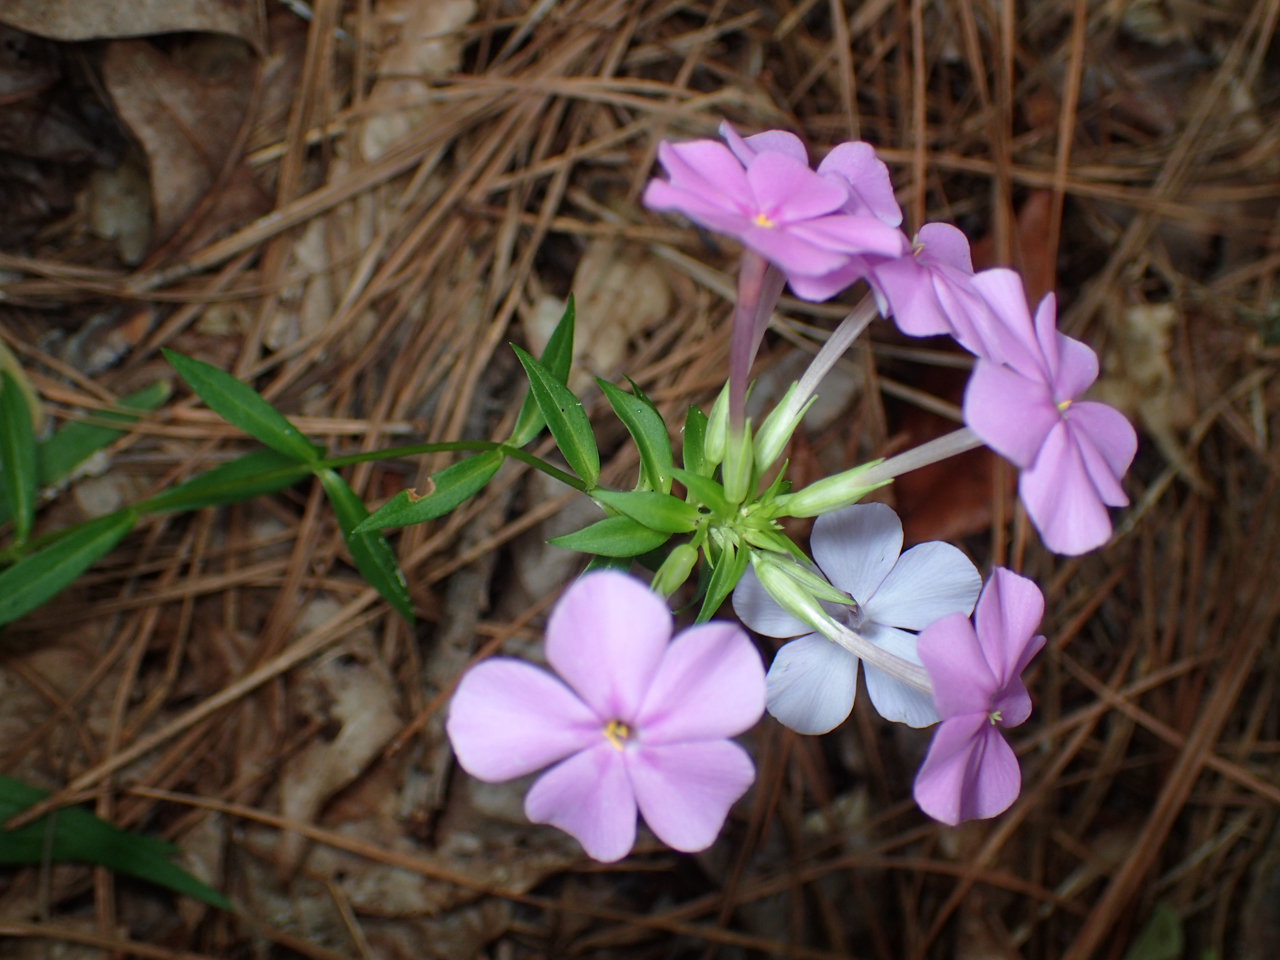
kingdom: Plantae
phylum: Tracheophyta
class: Magnoliopsida
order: Ericales
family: Polemoniaceae
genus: Phlox
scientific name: Phlox carolina
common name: Thick-leaf phlox
